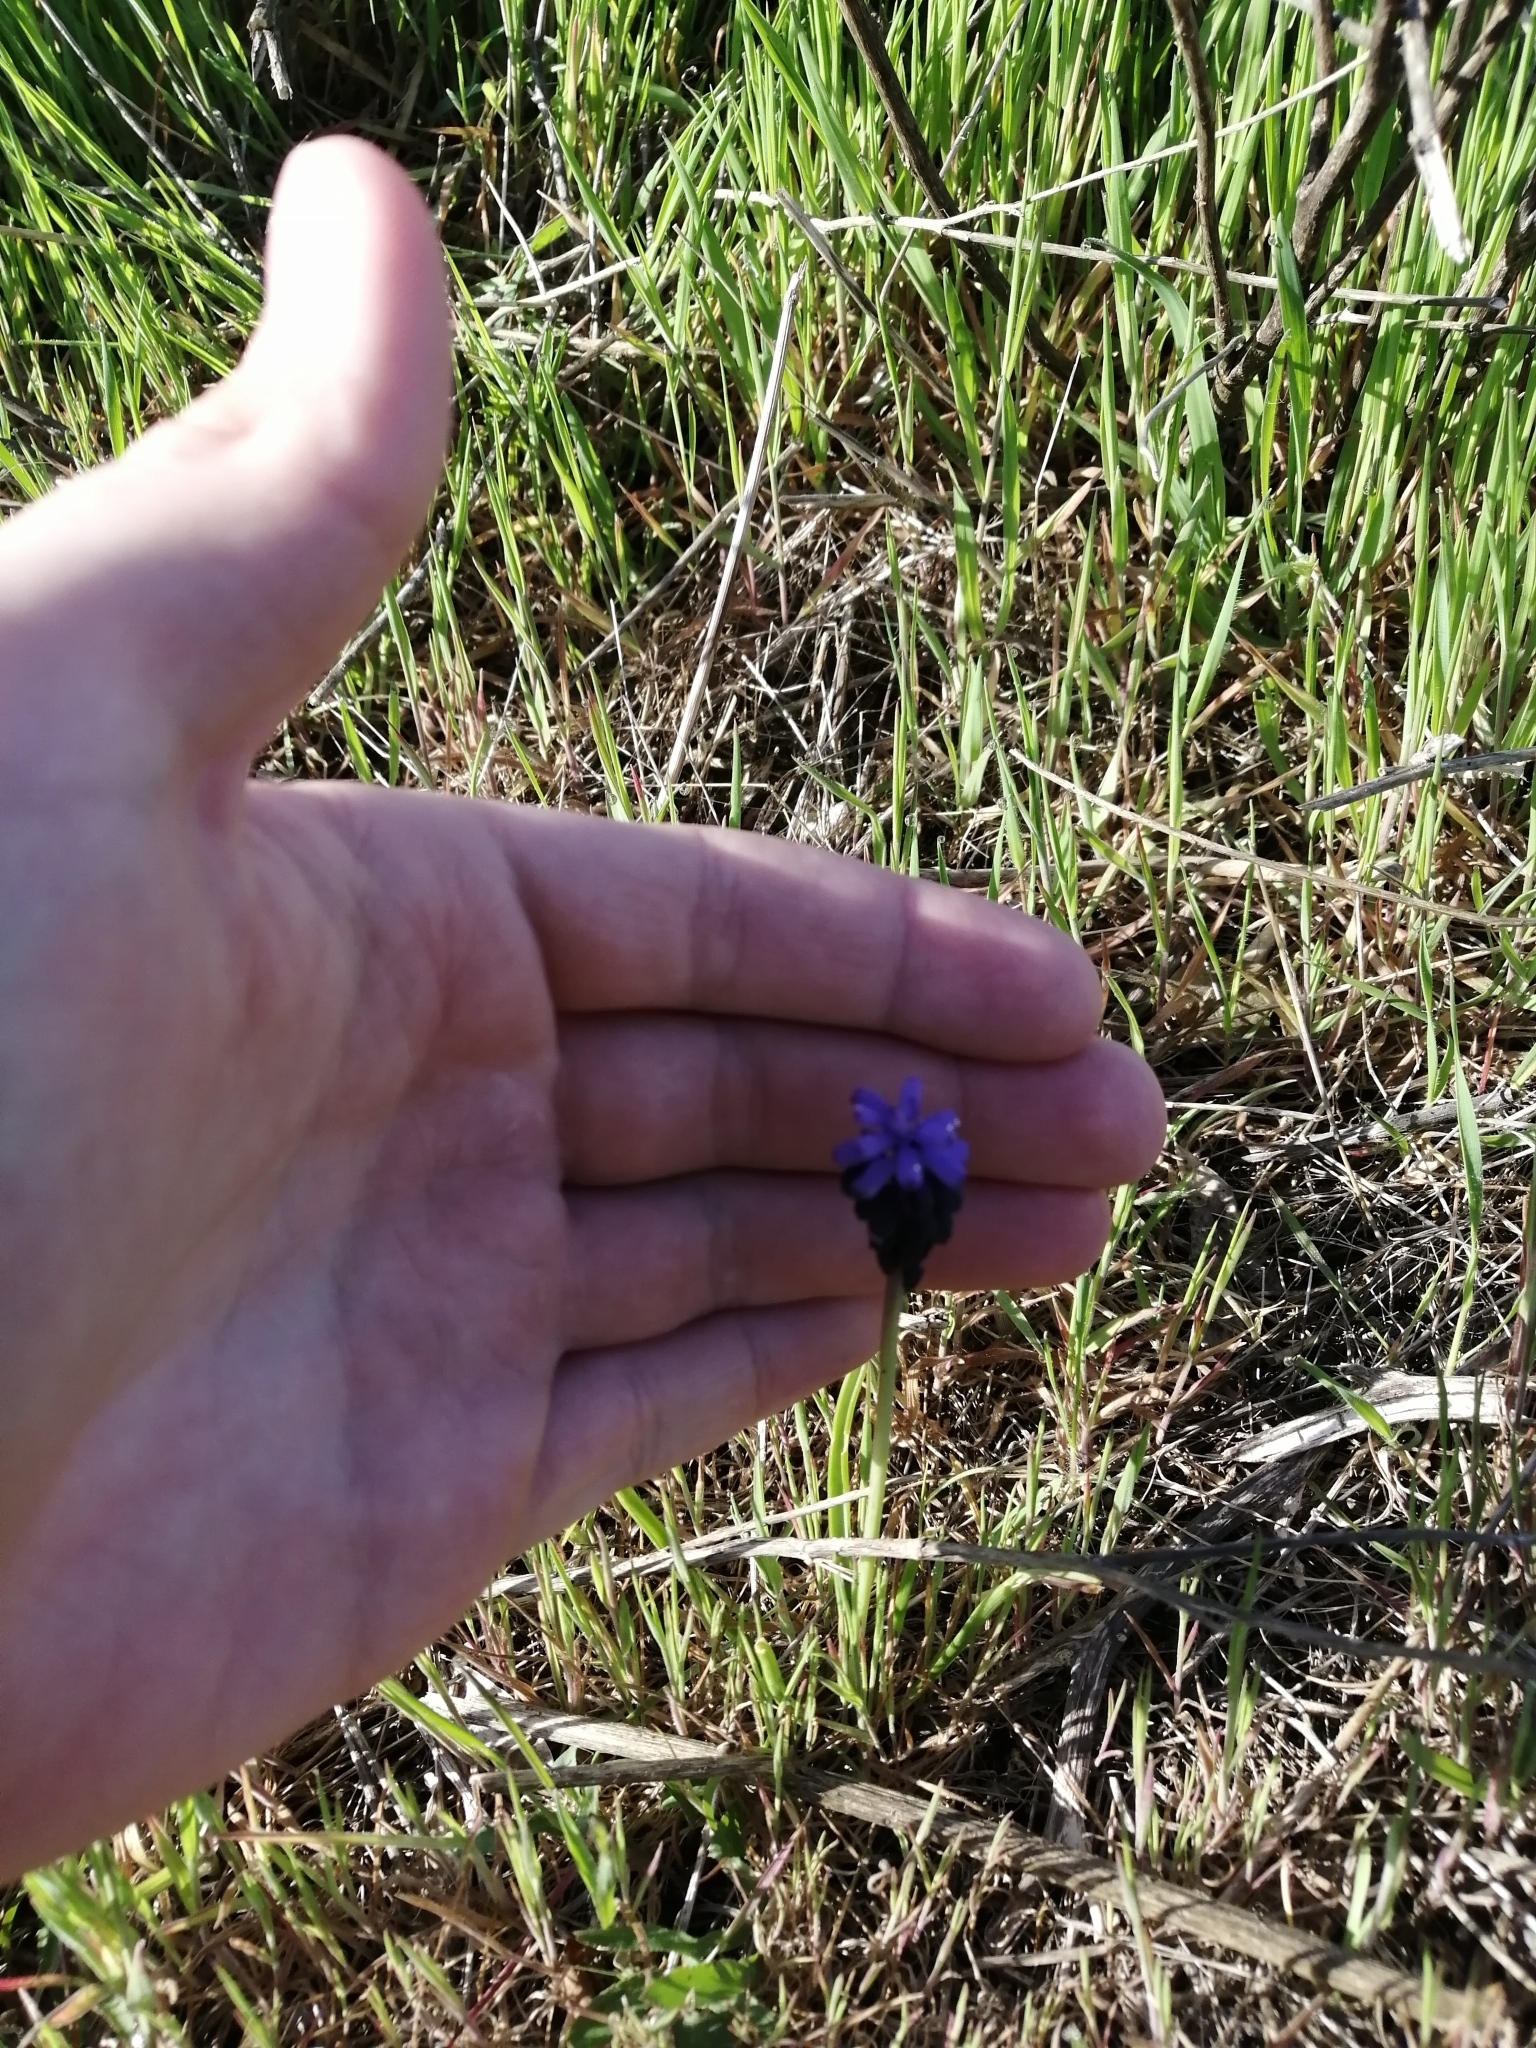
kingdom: Plantae
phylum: Tracheophyta
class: Liliopsida
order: Asparagales
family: Asparagaceae
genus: Muscari
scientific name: Muscari neglectum
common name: Grape-hyacinth
